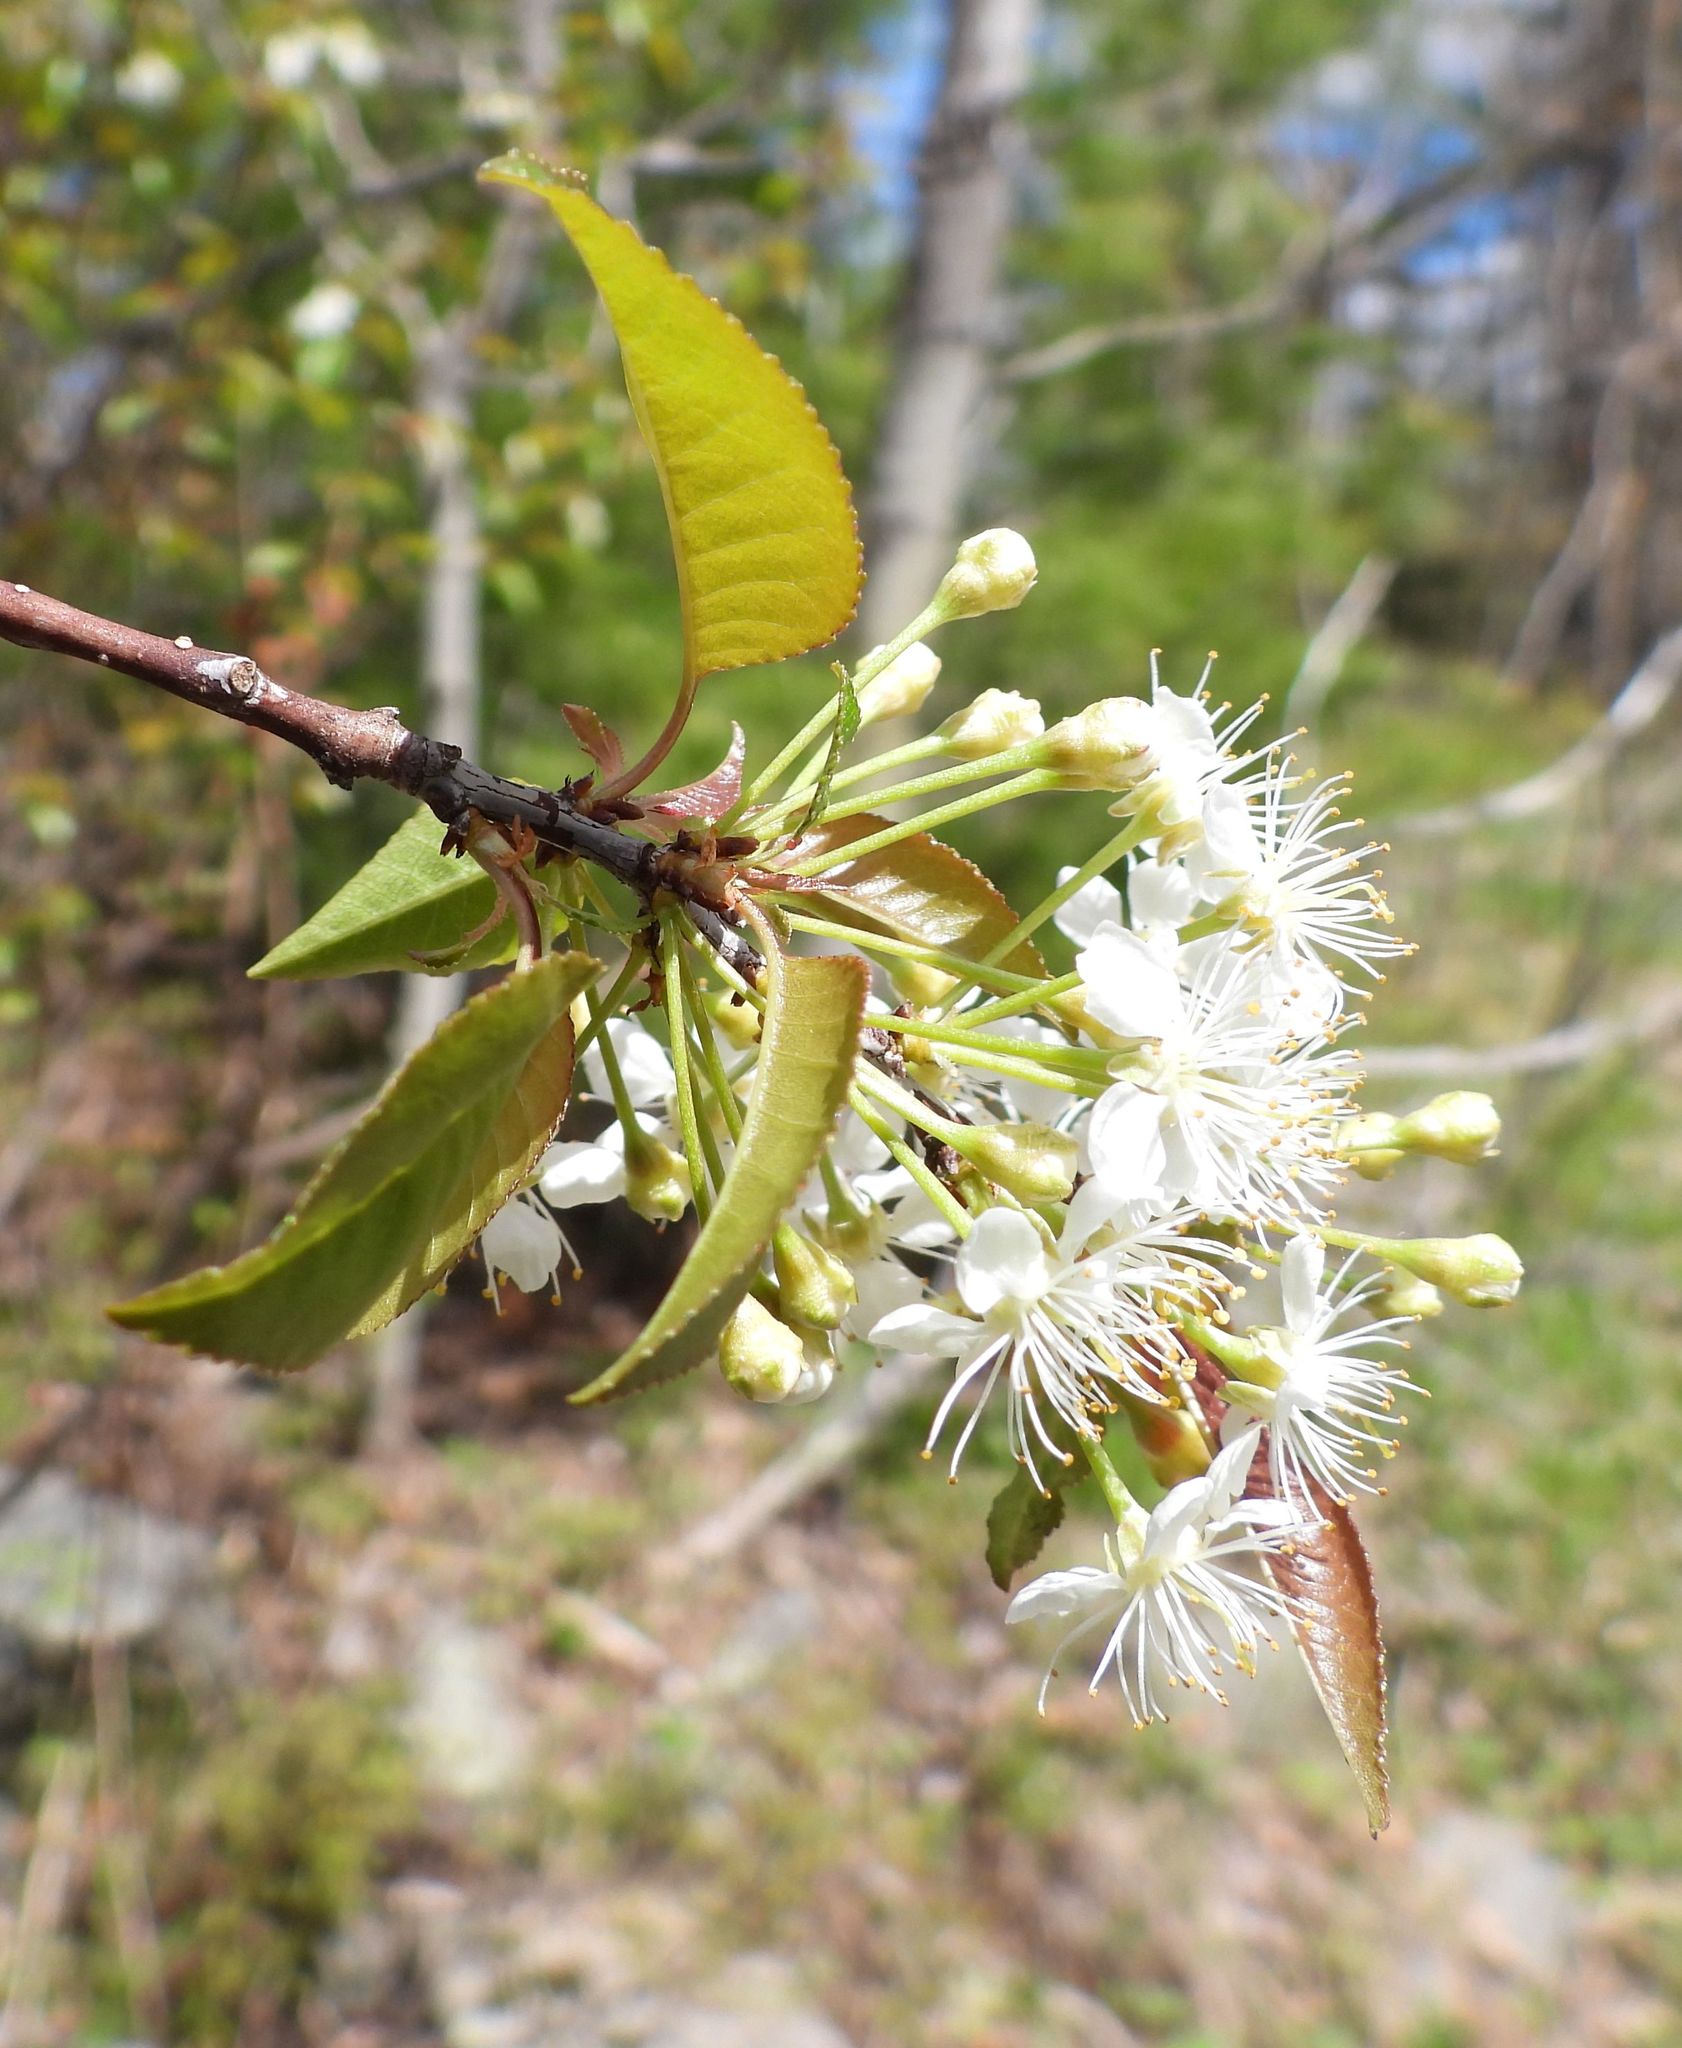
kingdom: Plantae
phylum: Tracheophyta
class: Magnoliopsida
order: Rosales
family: Rosaceae
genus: Prunus
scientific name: Prunus pensylvanica
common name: Pin cherry
